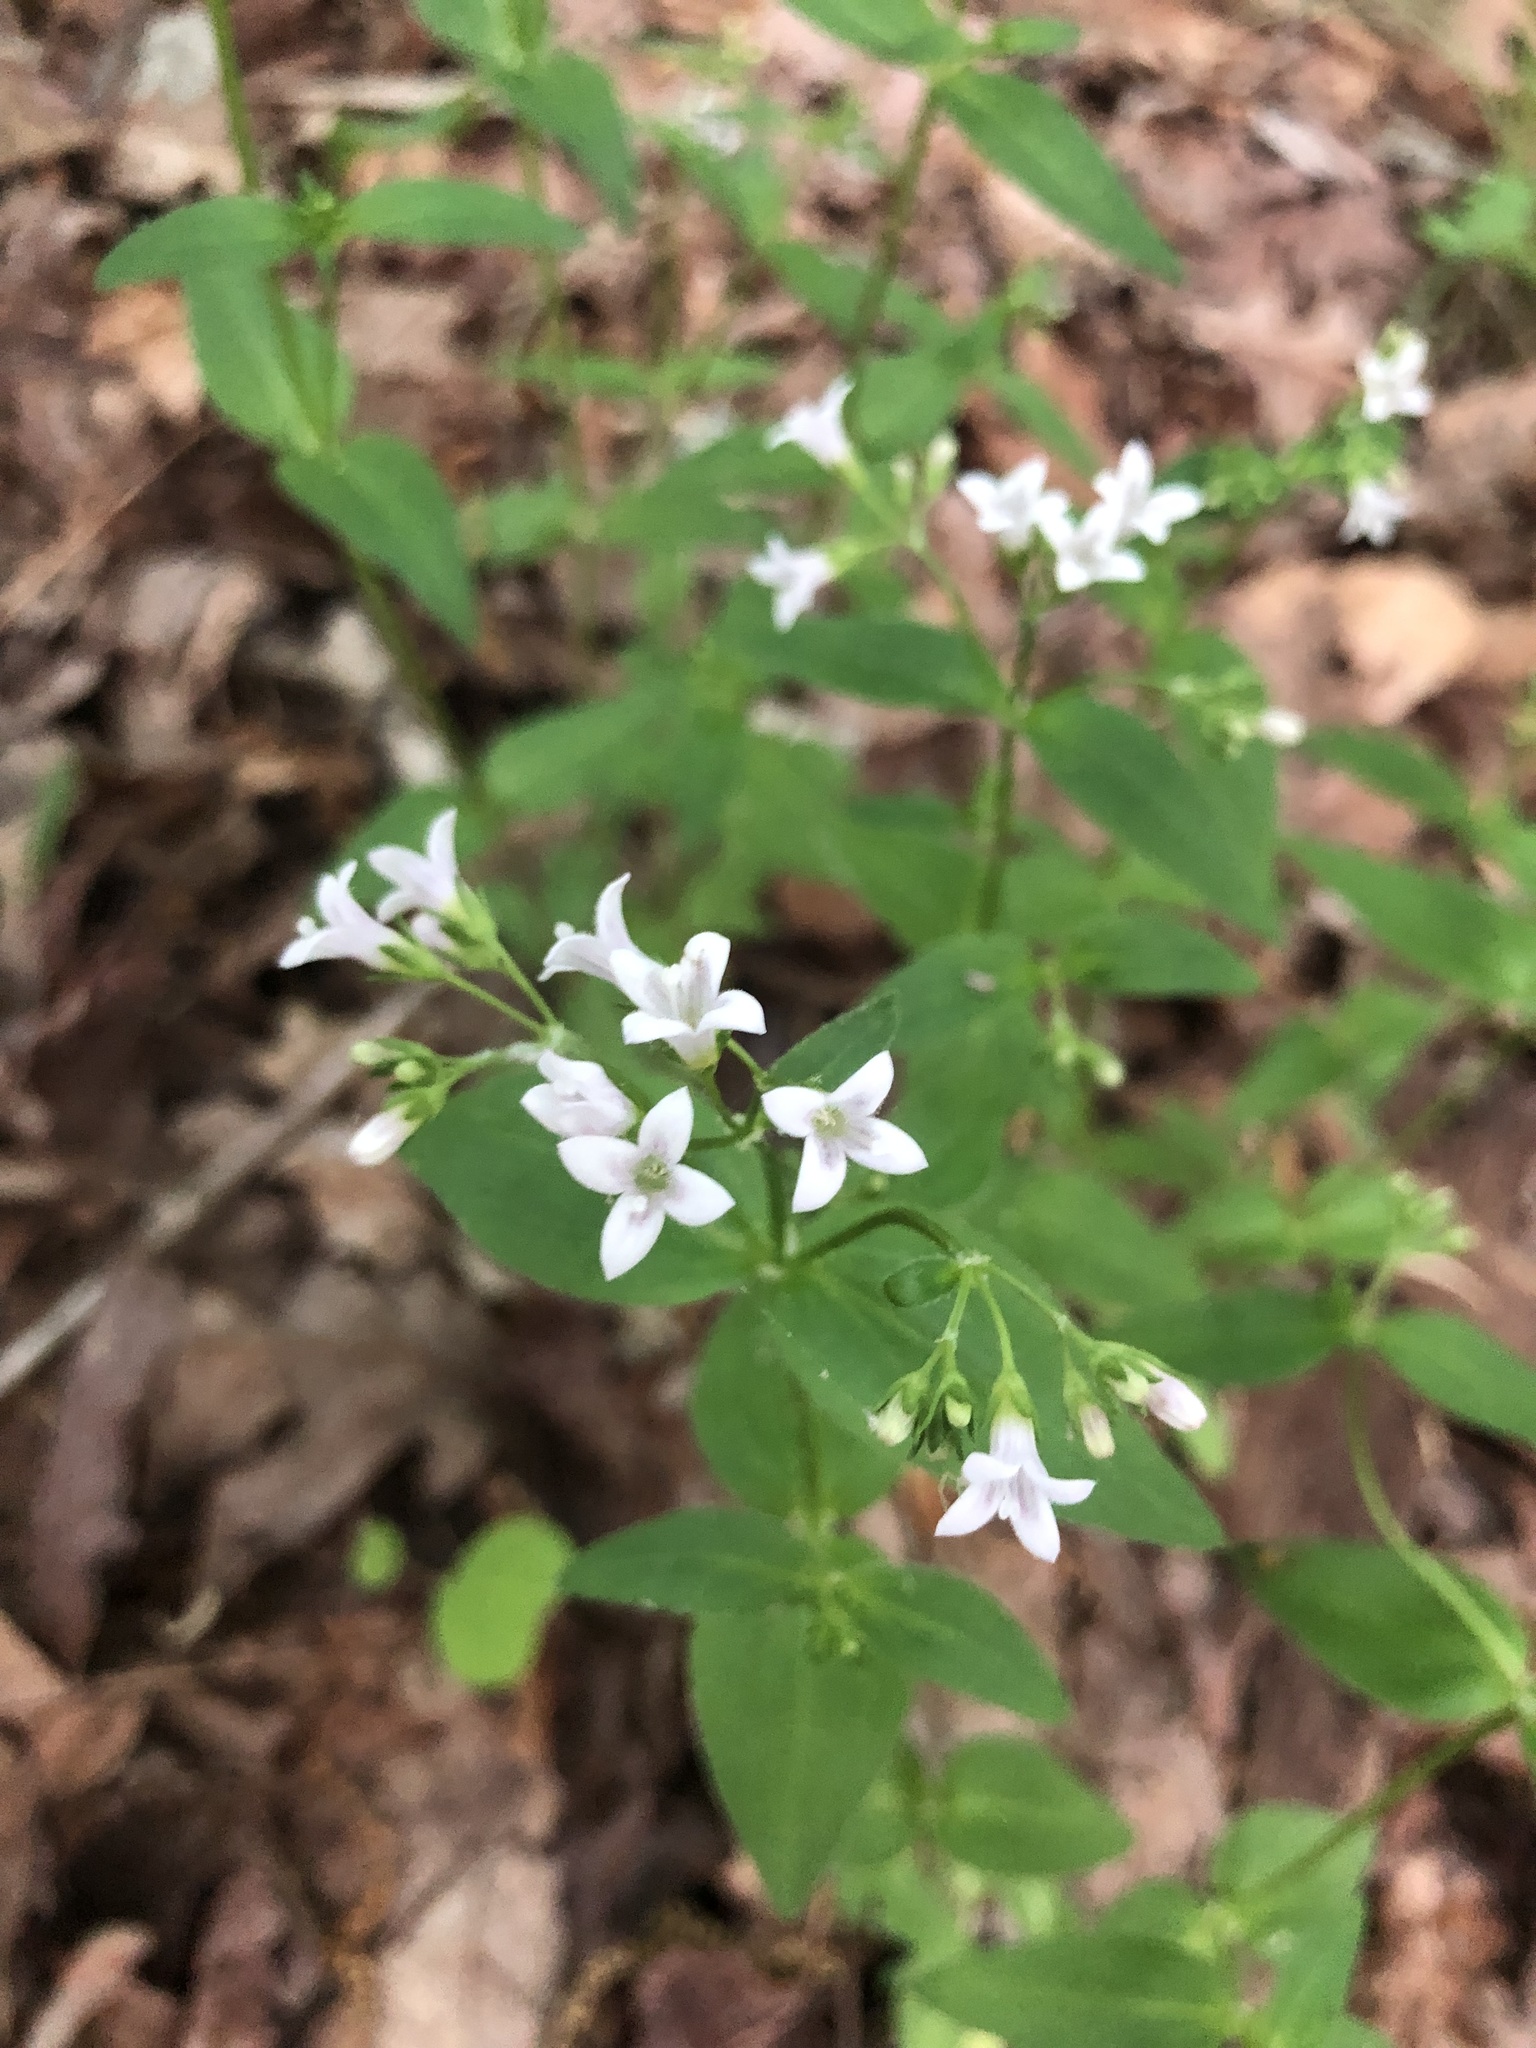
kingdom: Plantae
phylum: Tracheophyta
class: Magnoliopsida
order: Gentianales
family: Rubiaceae
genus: Houstonia
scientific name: Houstonia purpurea
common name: Summer bluet
